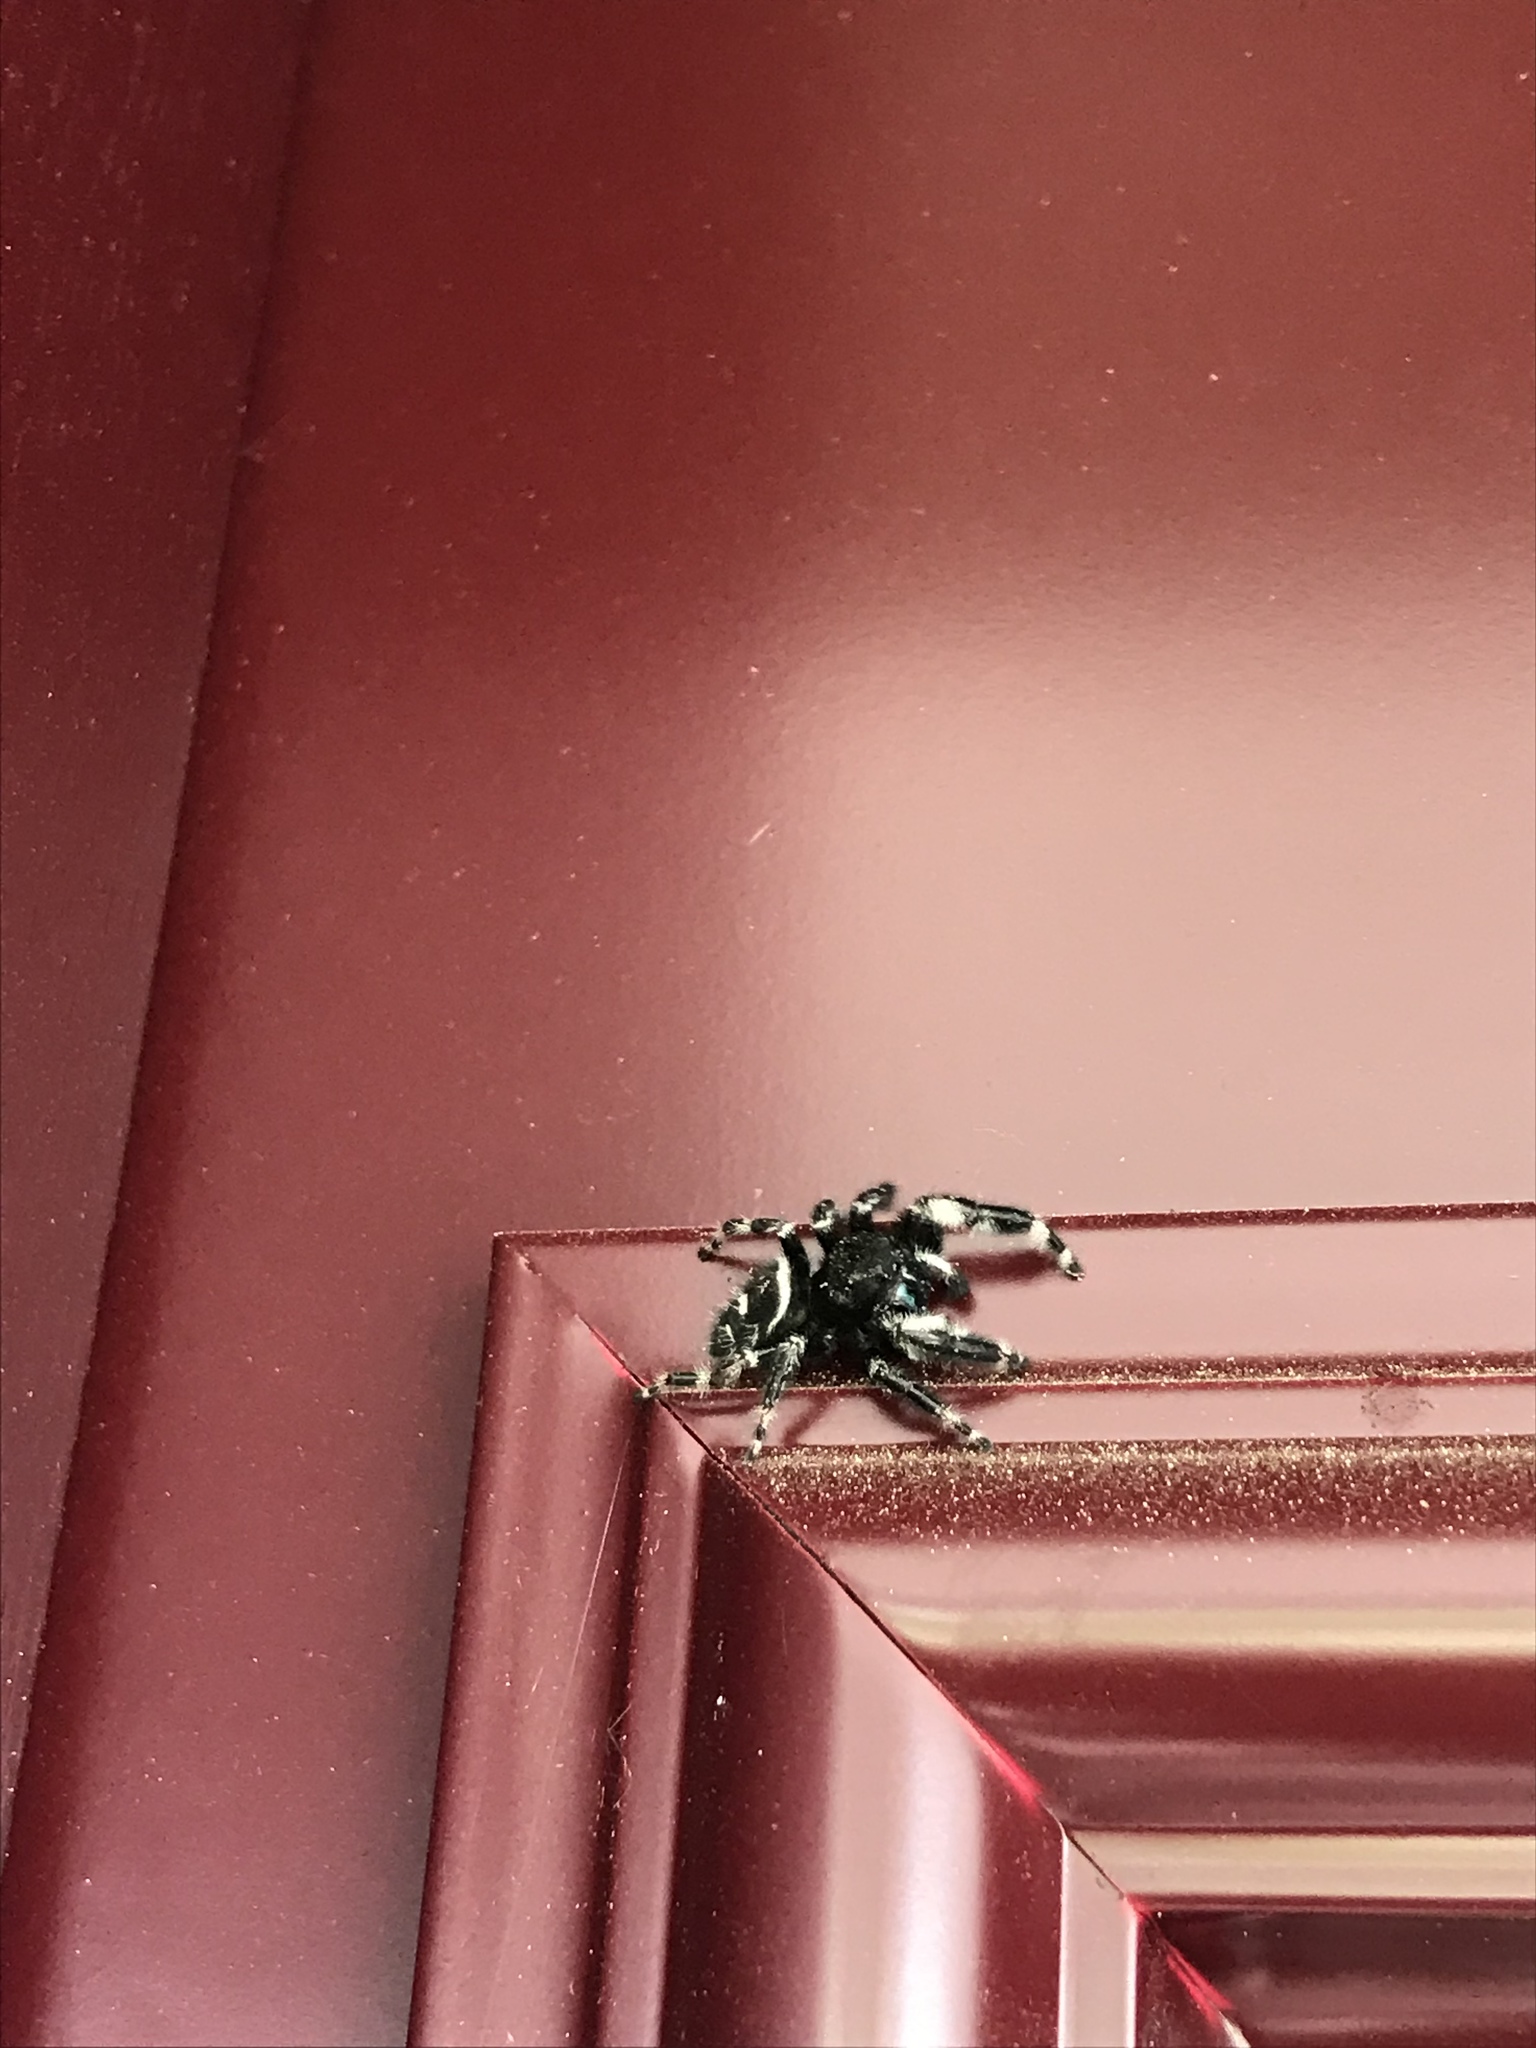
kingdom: Animalia
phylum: Arthropoda
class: Arachnida
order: Araneae
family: Salticidae
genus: Phidippus
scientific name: Phidippus audax
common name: Bold jumper
